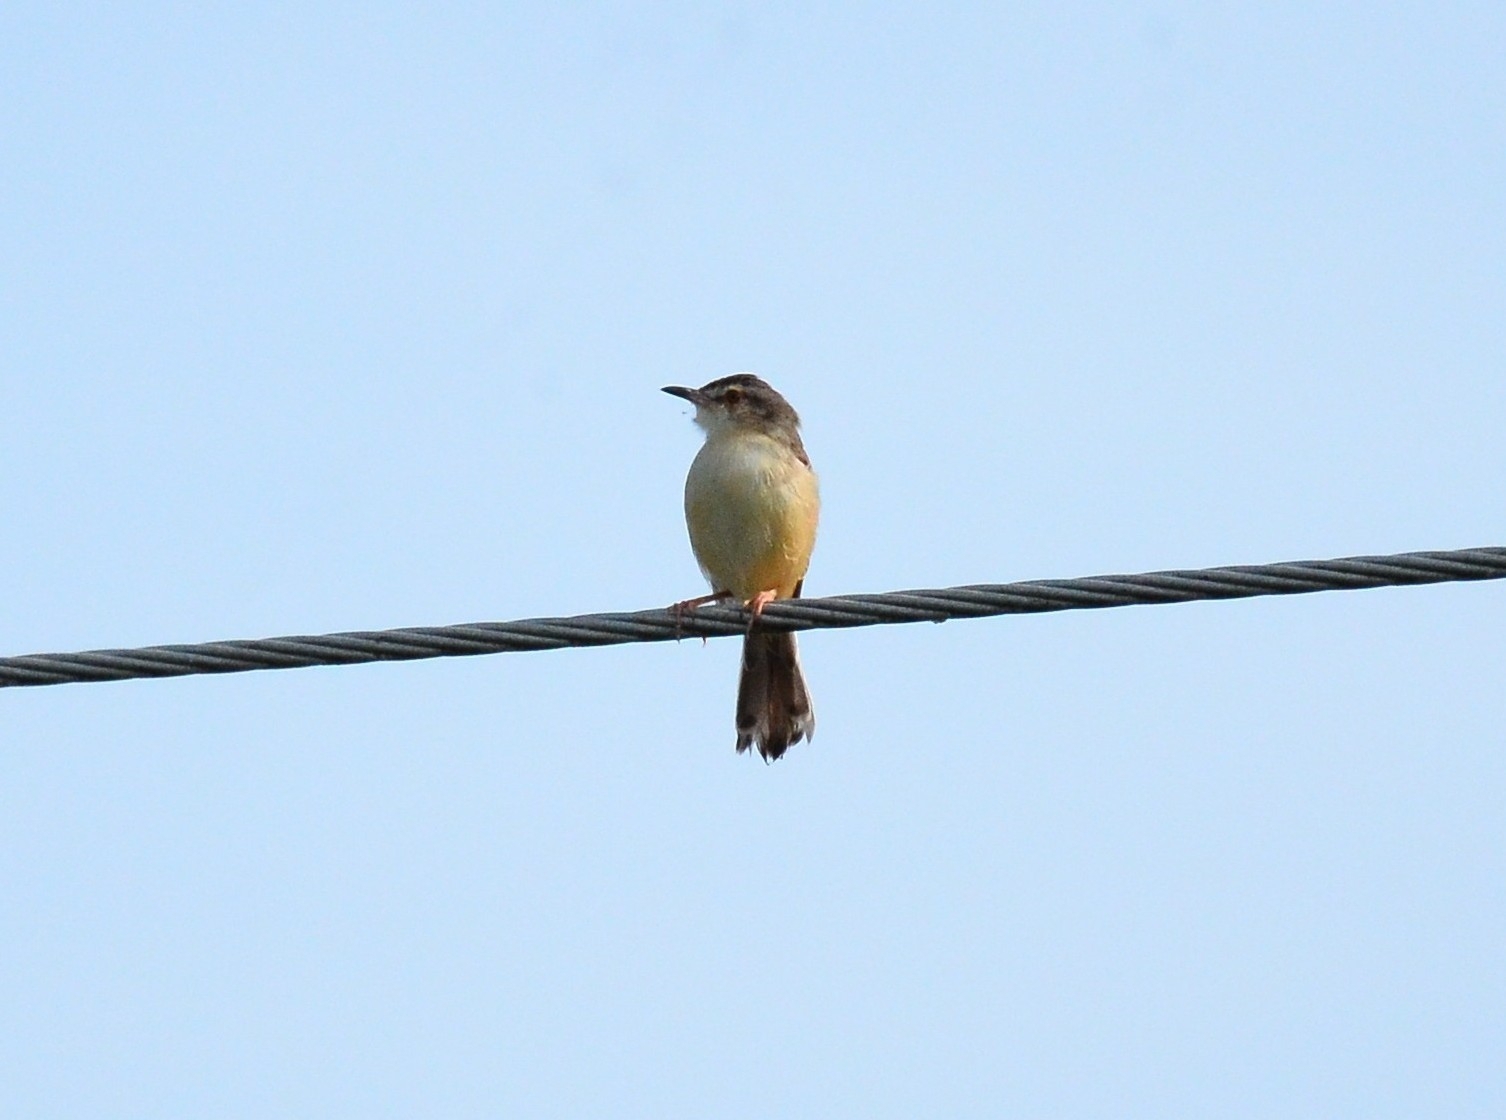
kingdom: Animalia
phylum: Chordata
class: Aves
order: Passeriformes
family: Cisticolidae
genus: Prinia
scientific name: Prinia inornata
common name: Plain prinia
